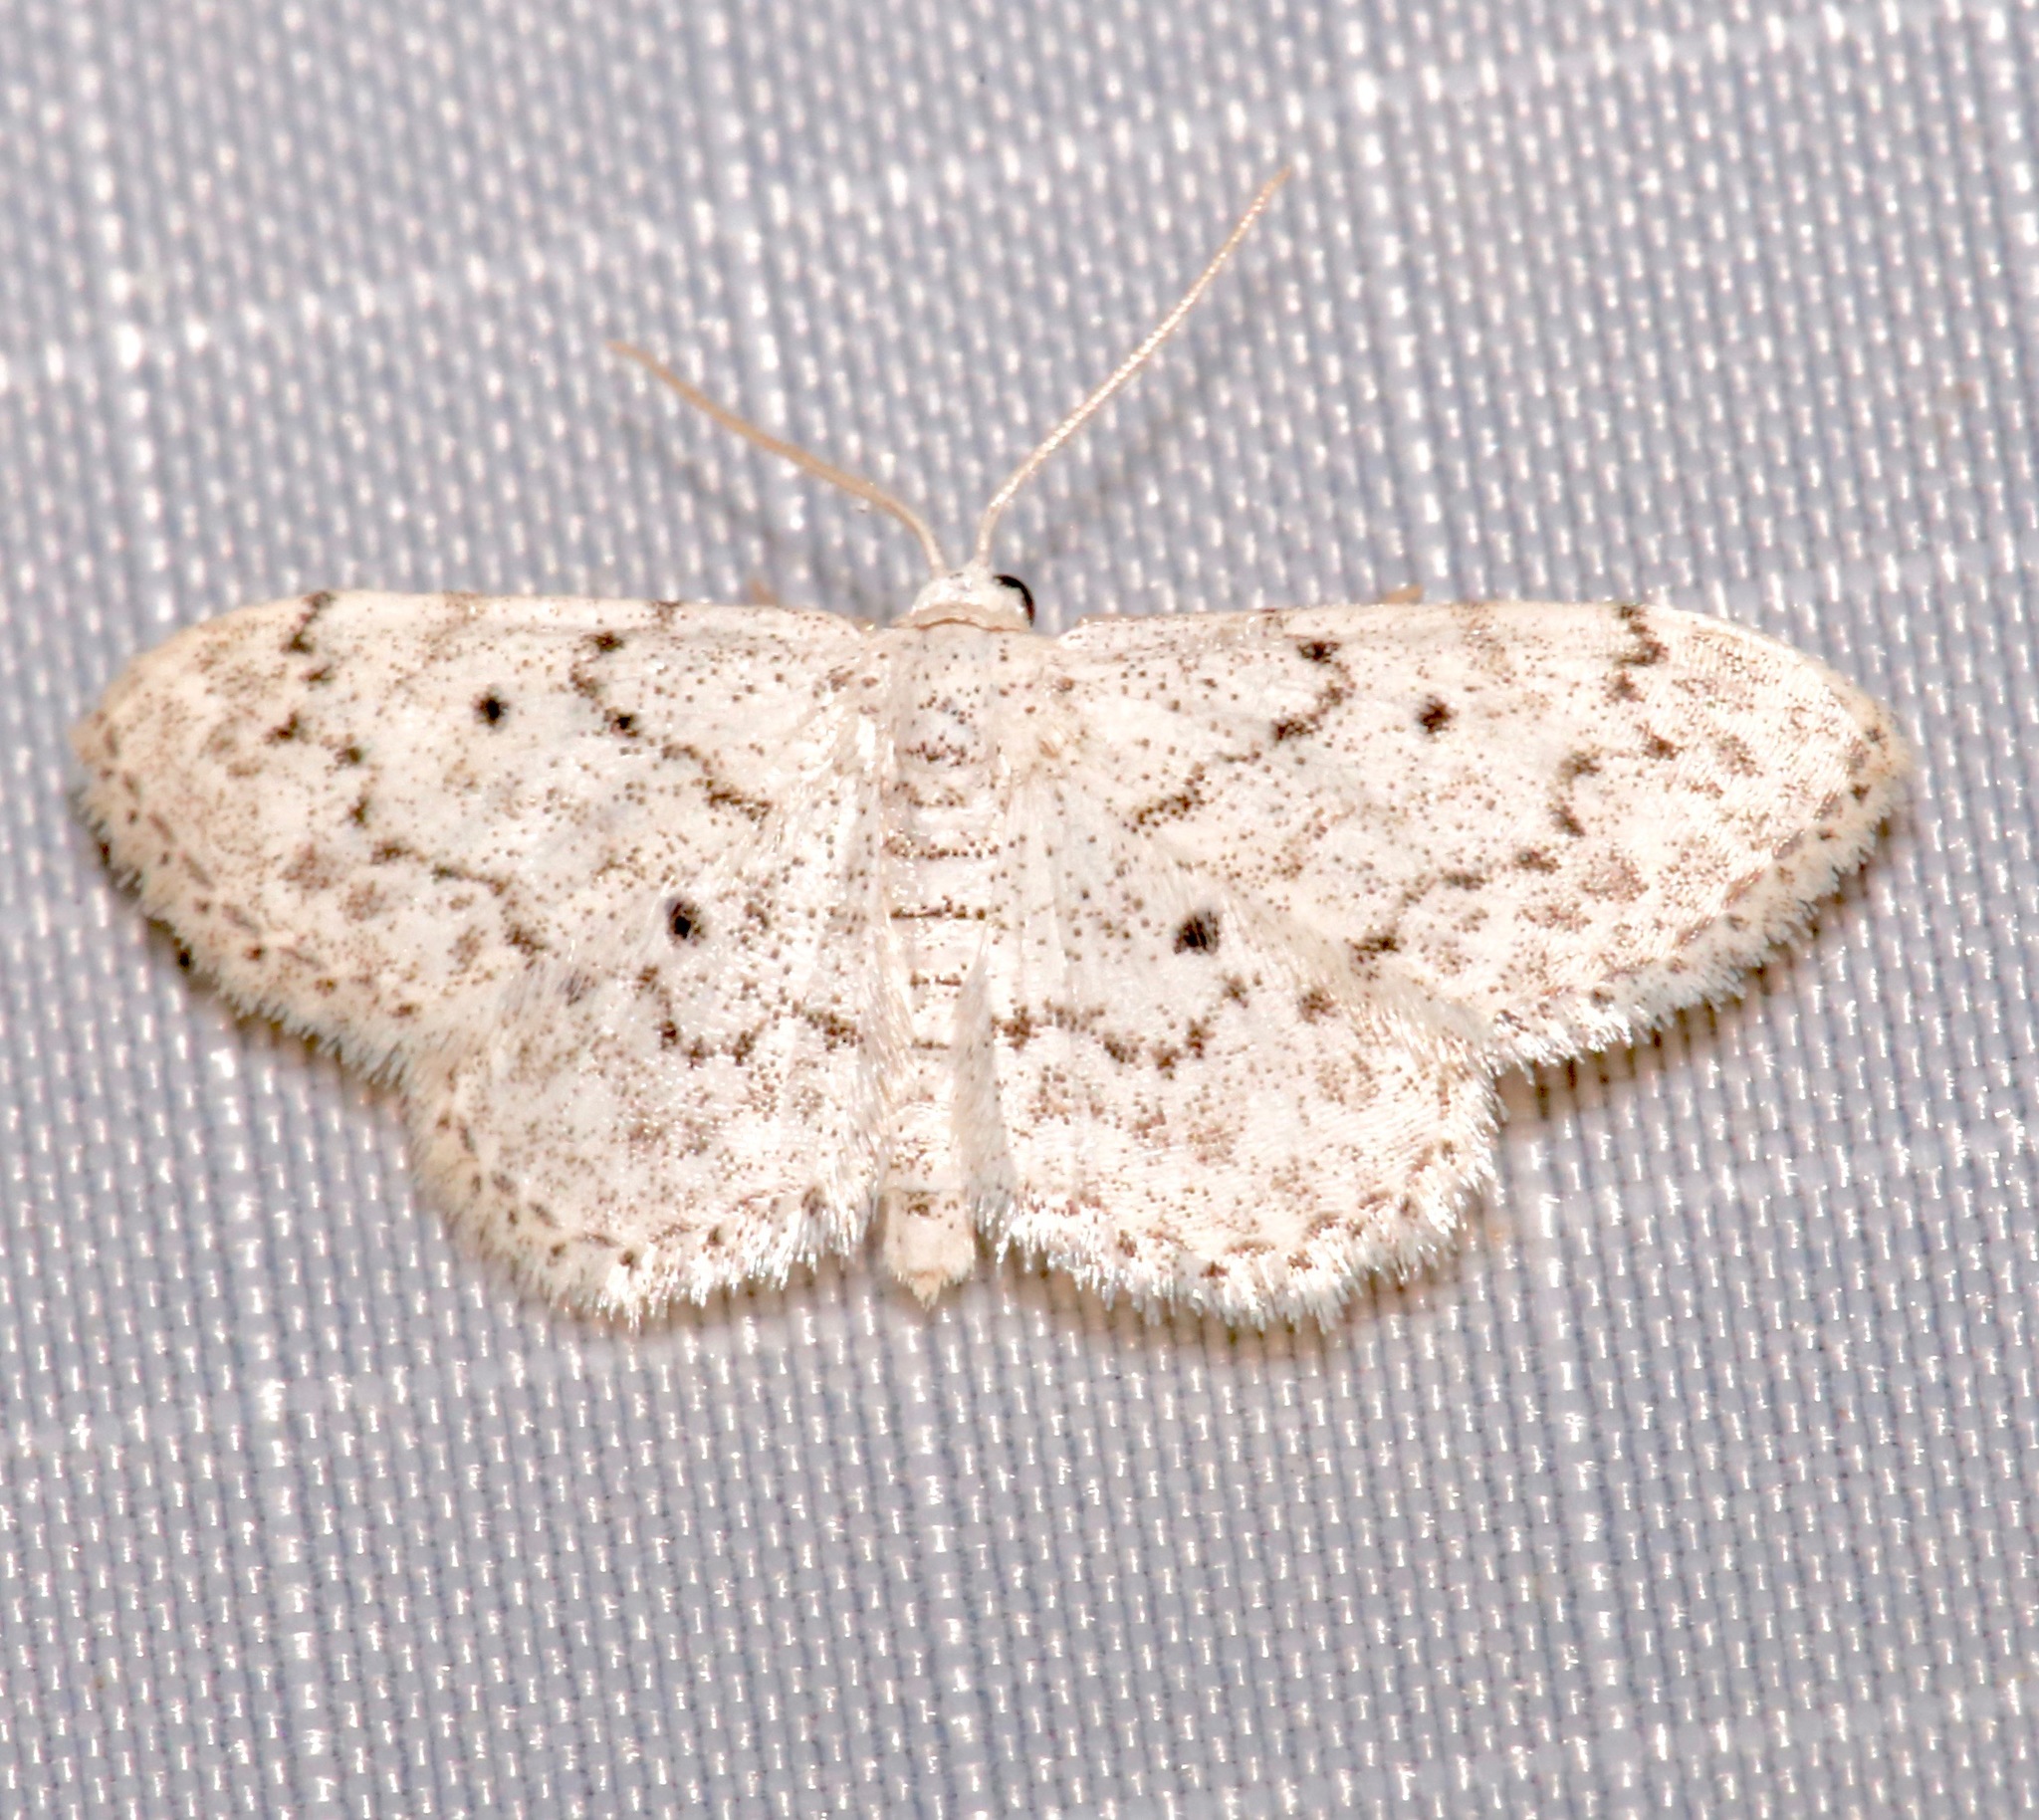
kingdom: Animalia
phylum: Arthropoda
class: Insecta
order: Lepidoptera
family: Geometridae
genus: Idaea
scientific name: Idaea ostentaria
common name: Showy wave moth
